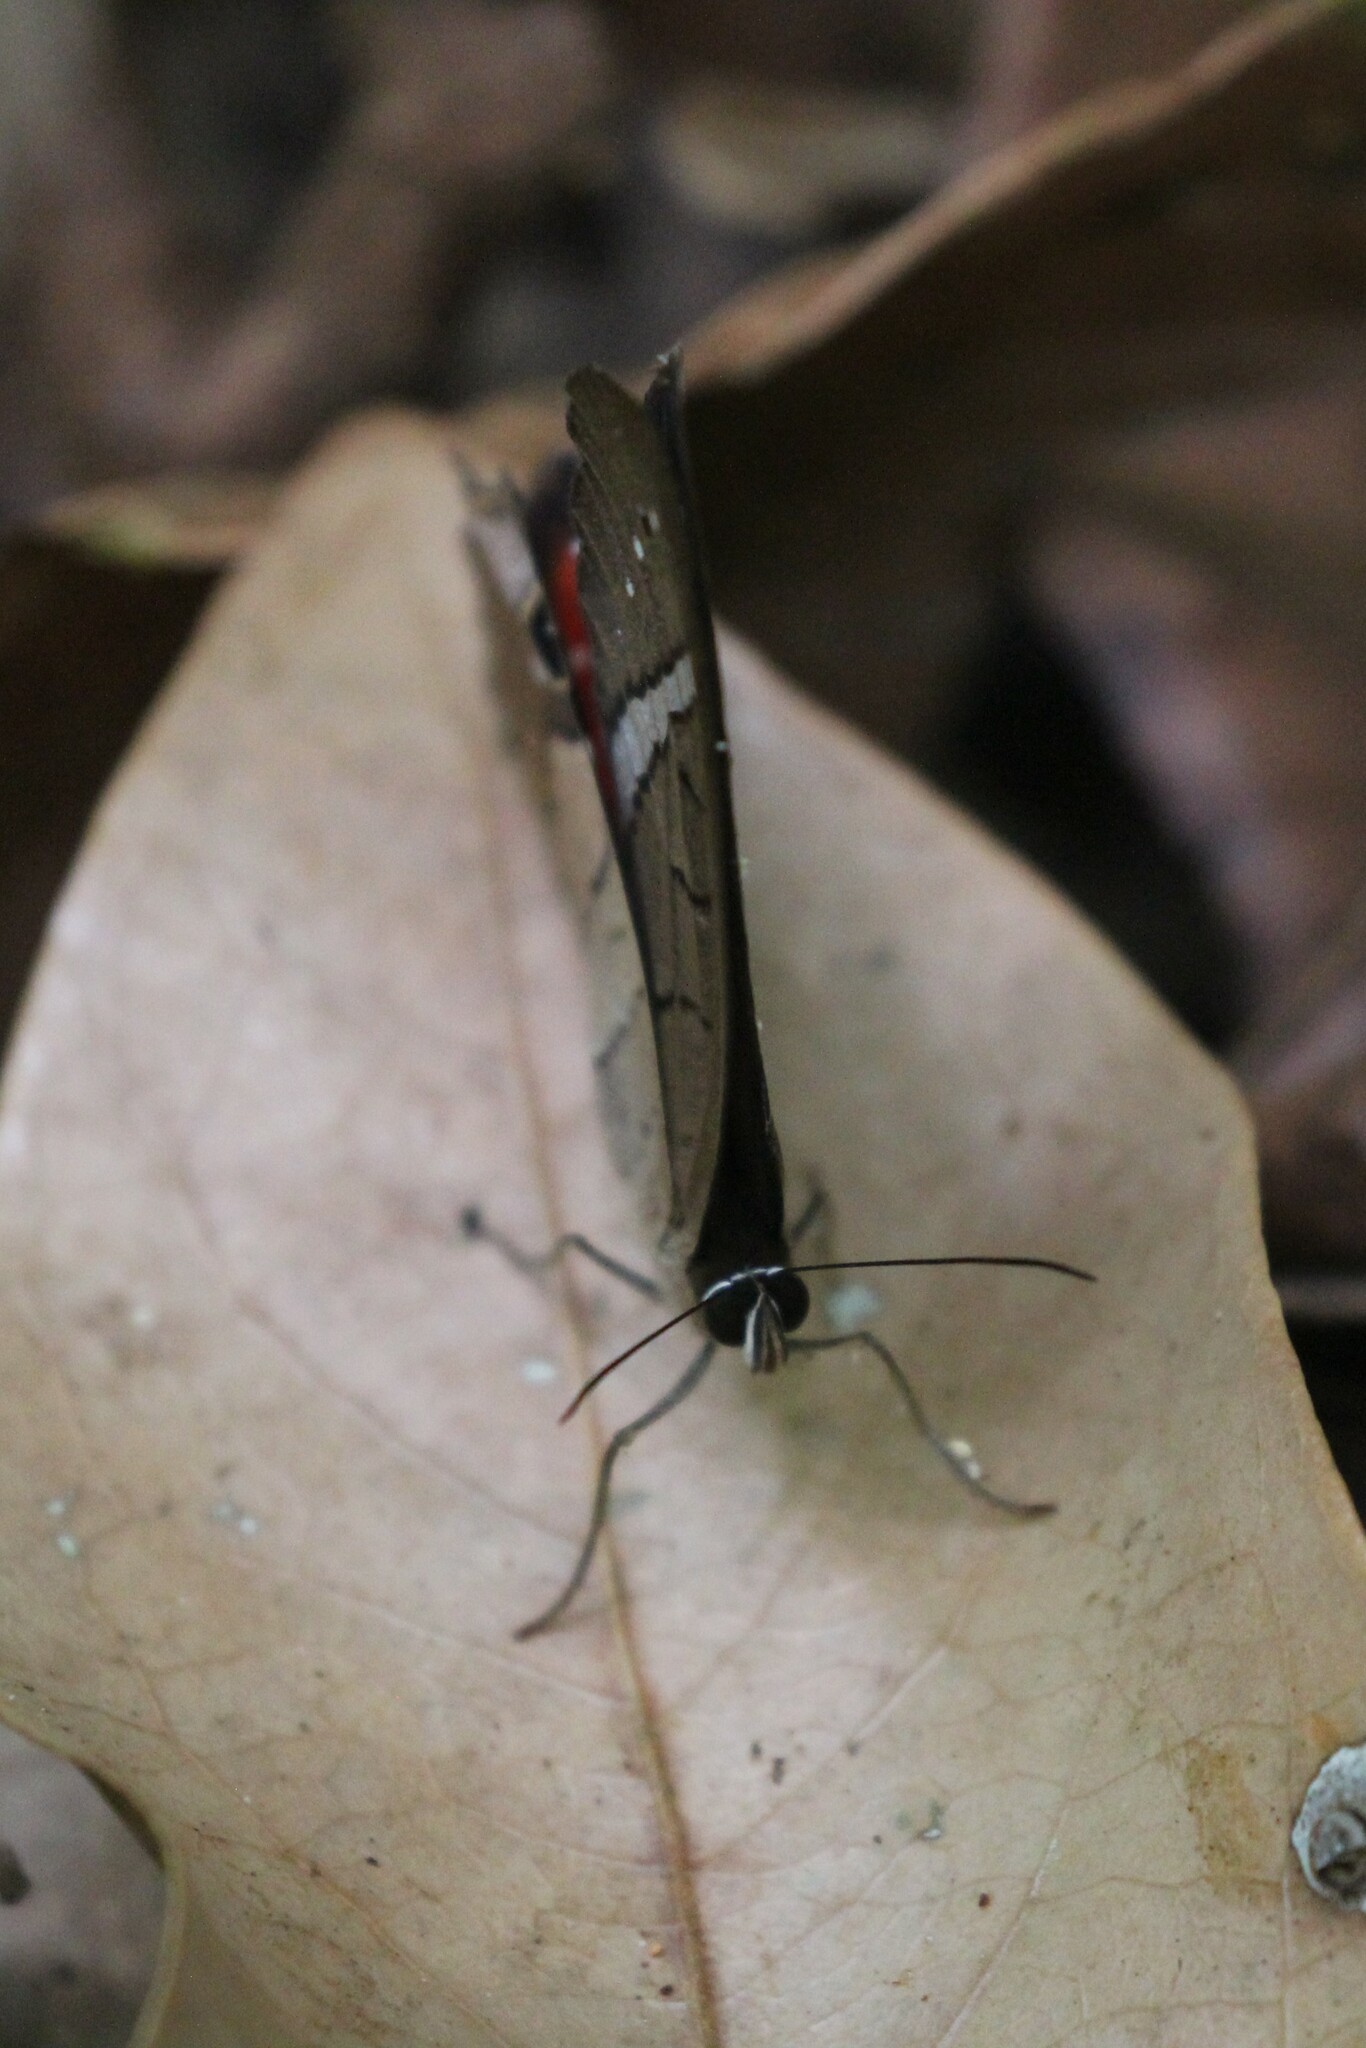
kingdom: Animalia
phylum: Arthropoda
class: Insecta
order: Lepidoptera
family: Nymphalidae
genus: Pierella
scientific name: Pierella helvina
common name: Red-washed satyr
